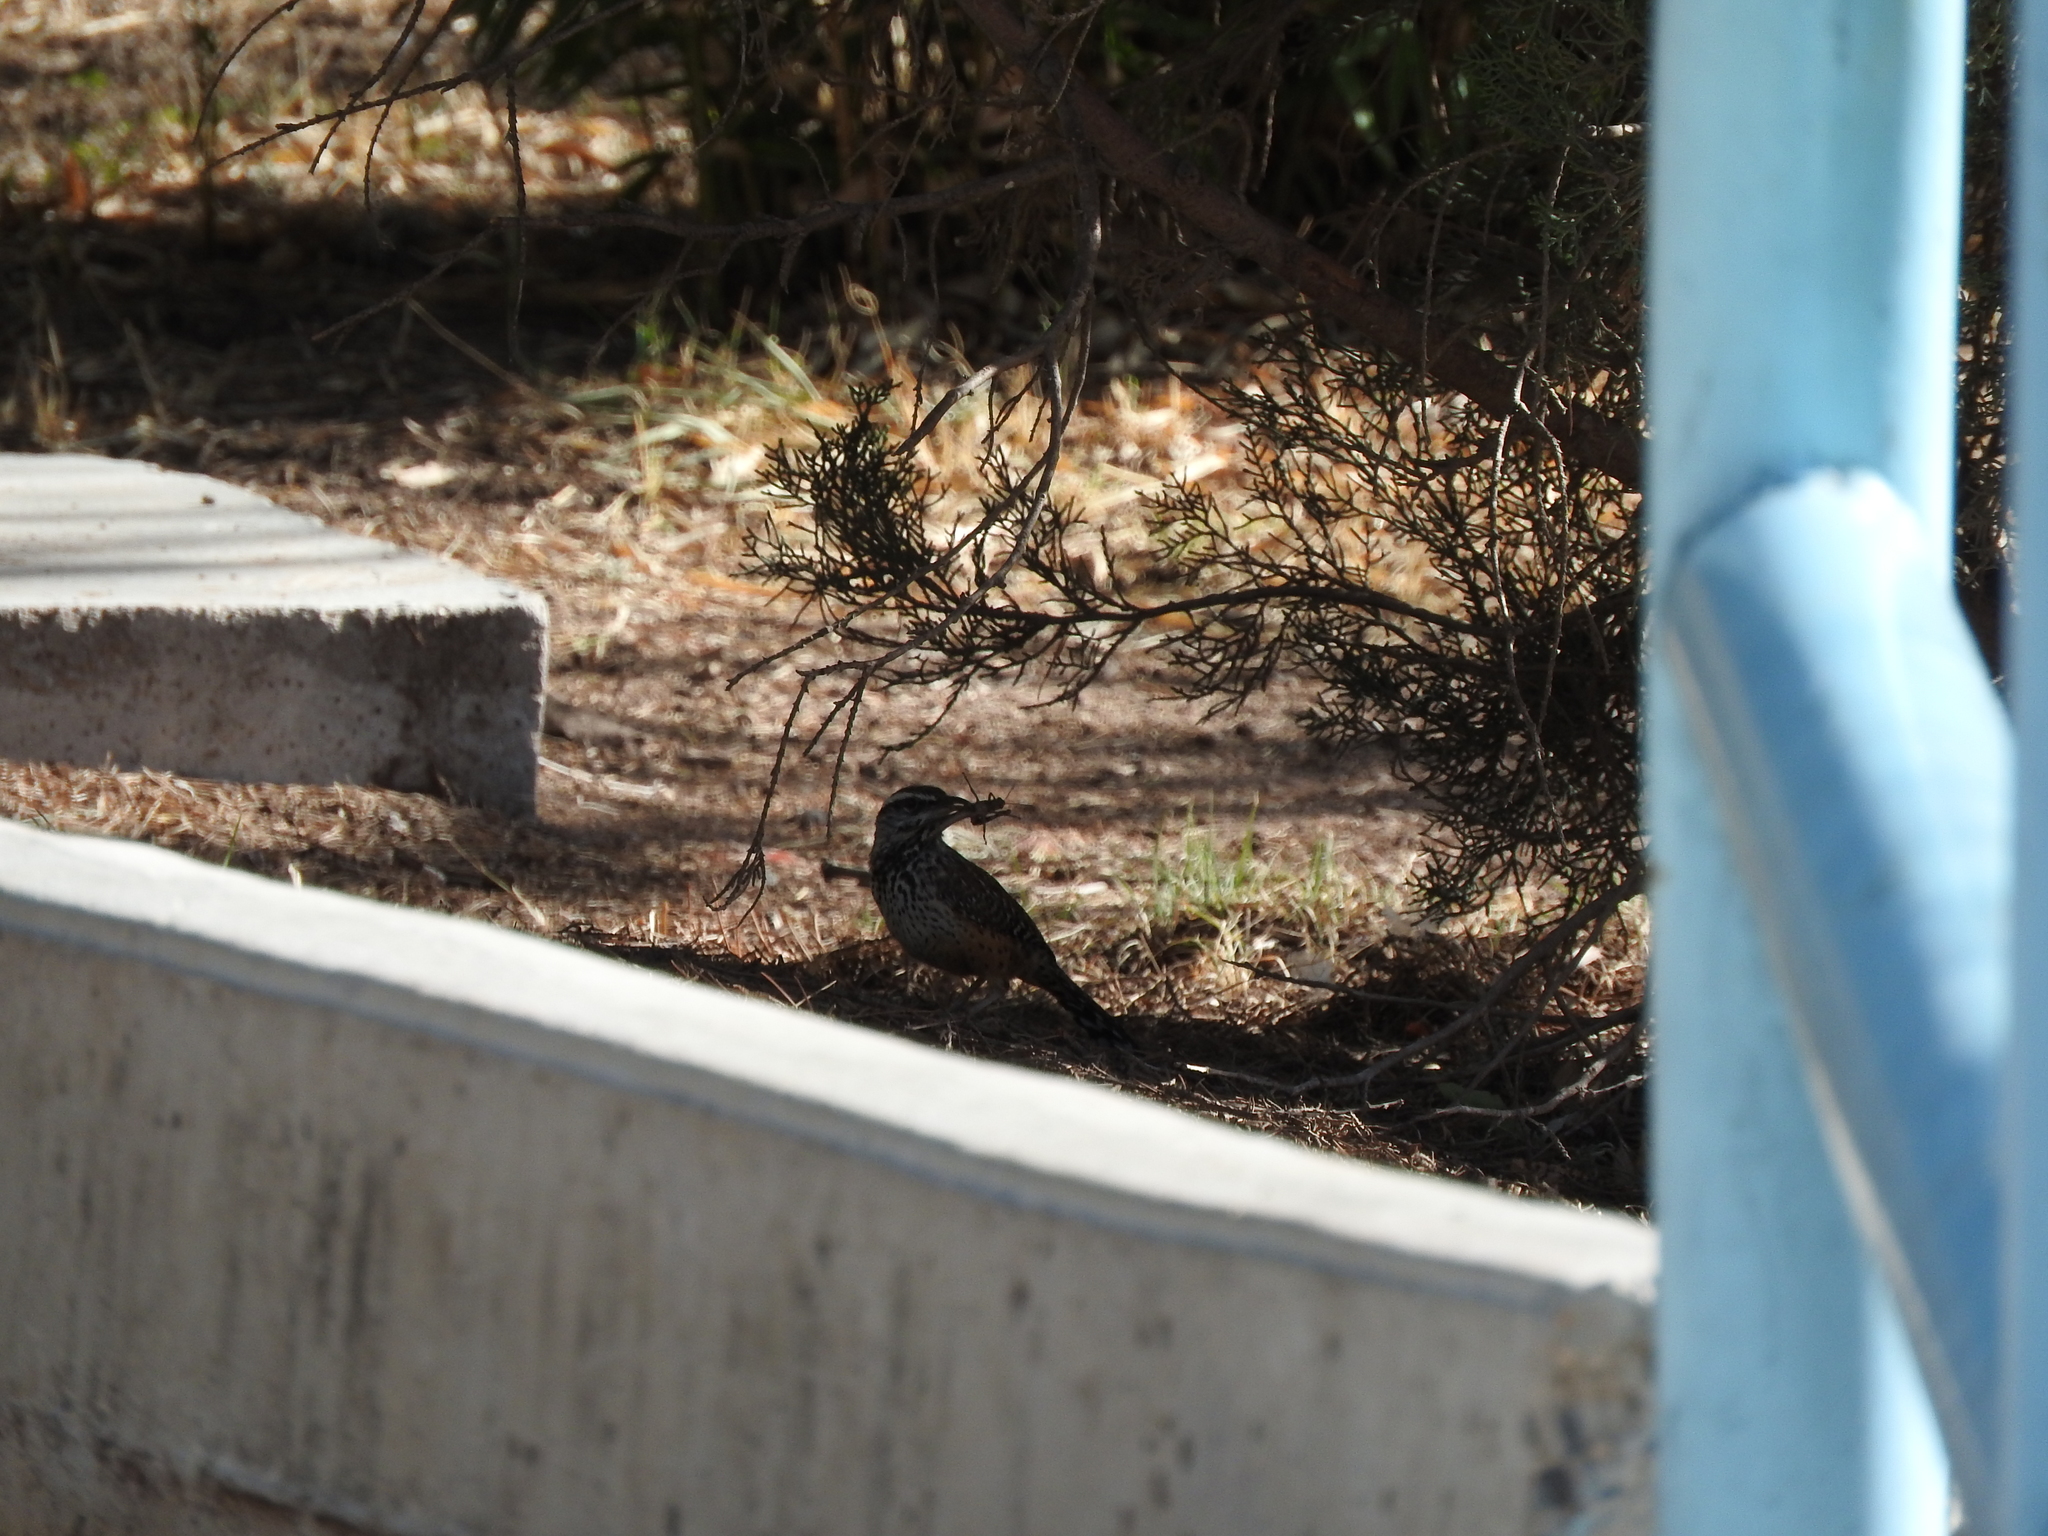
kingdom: Animalia
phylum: Chordata
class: Aves
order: Passeriformes
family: Troglodytidae
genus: Campylorhynchus
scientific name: Campylorhynchus brunneicapillus
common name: Cactus wren
